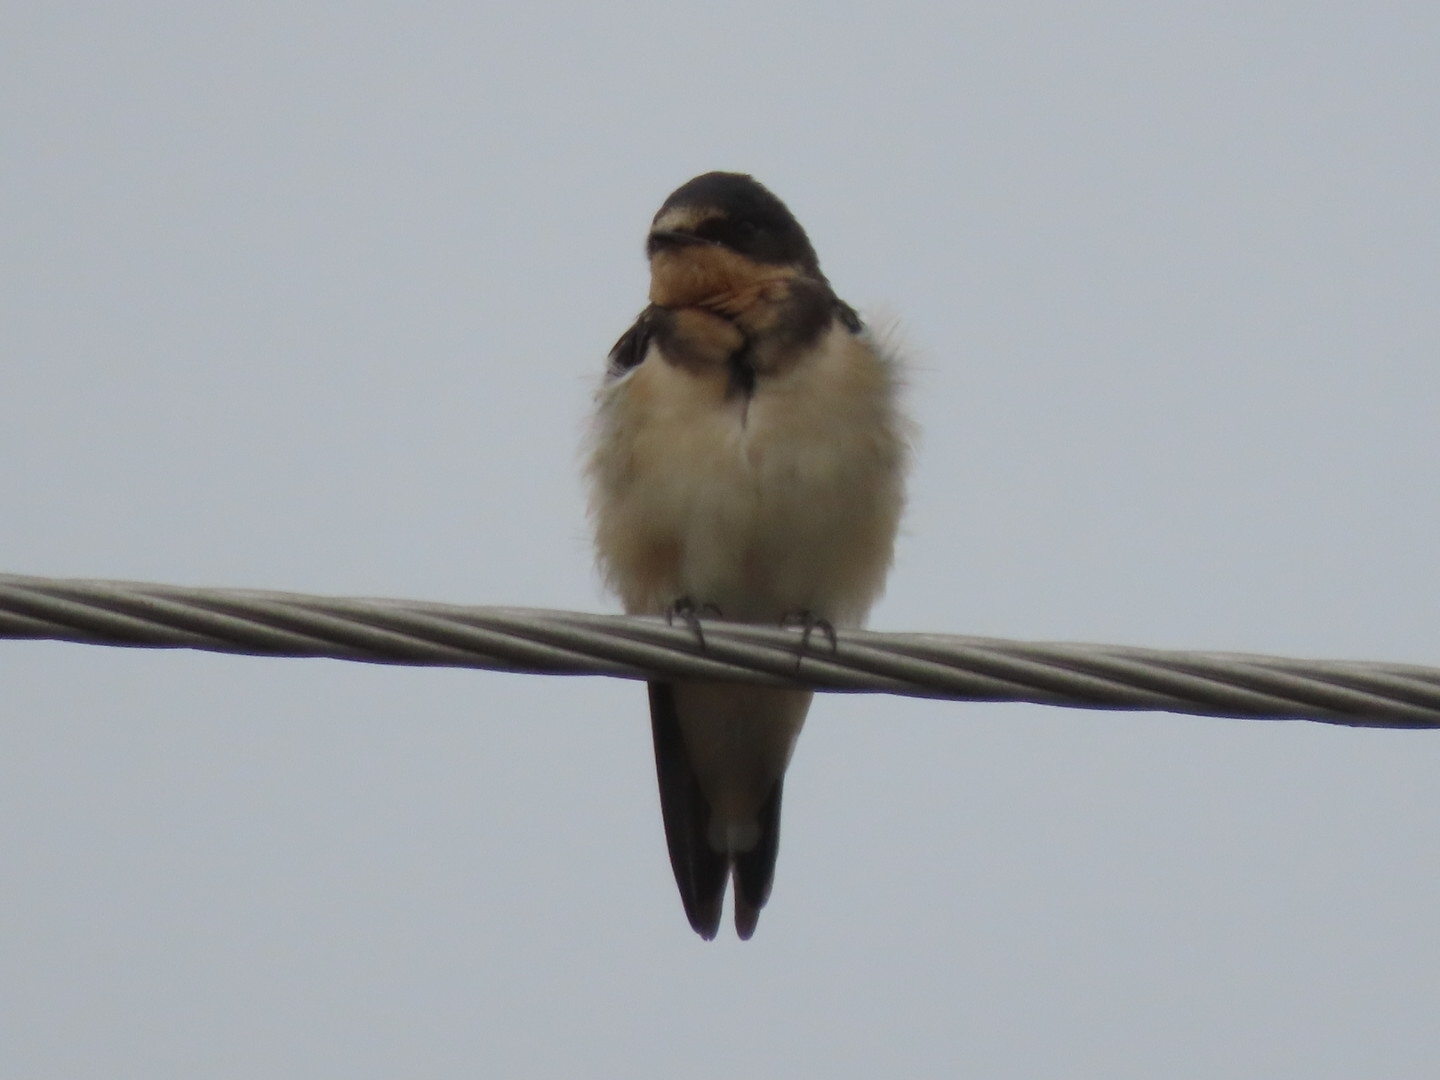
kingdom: Animalia
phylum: Chordata
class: Aves
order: Passeriformes
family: Hirundinidae
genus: Hirundo
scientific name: Hirundo rustica
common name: Barn swallow
